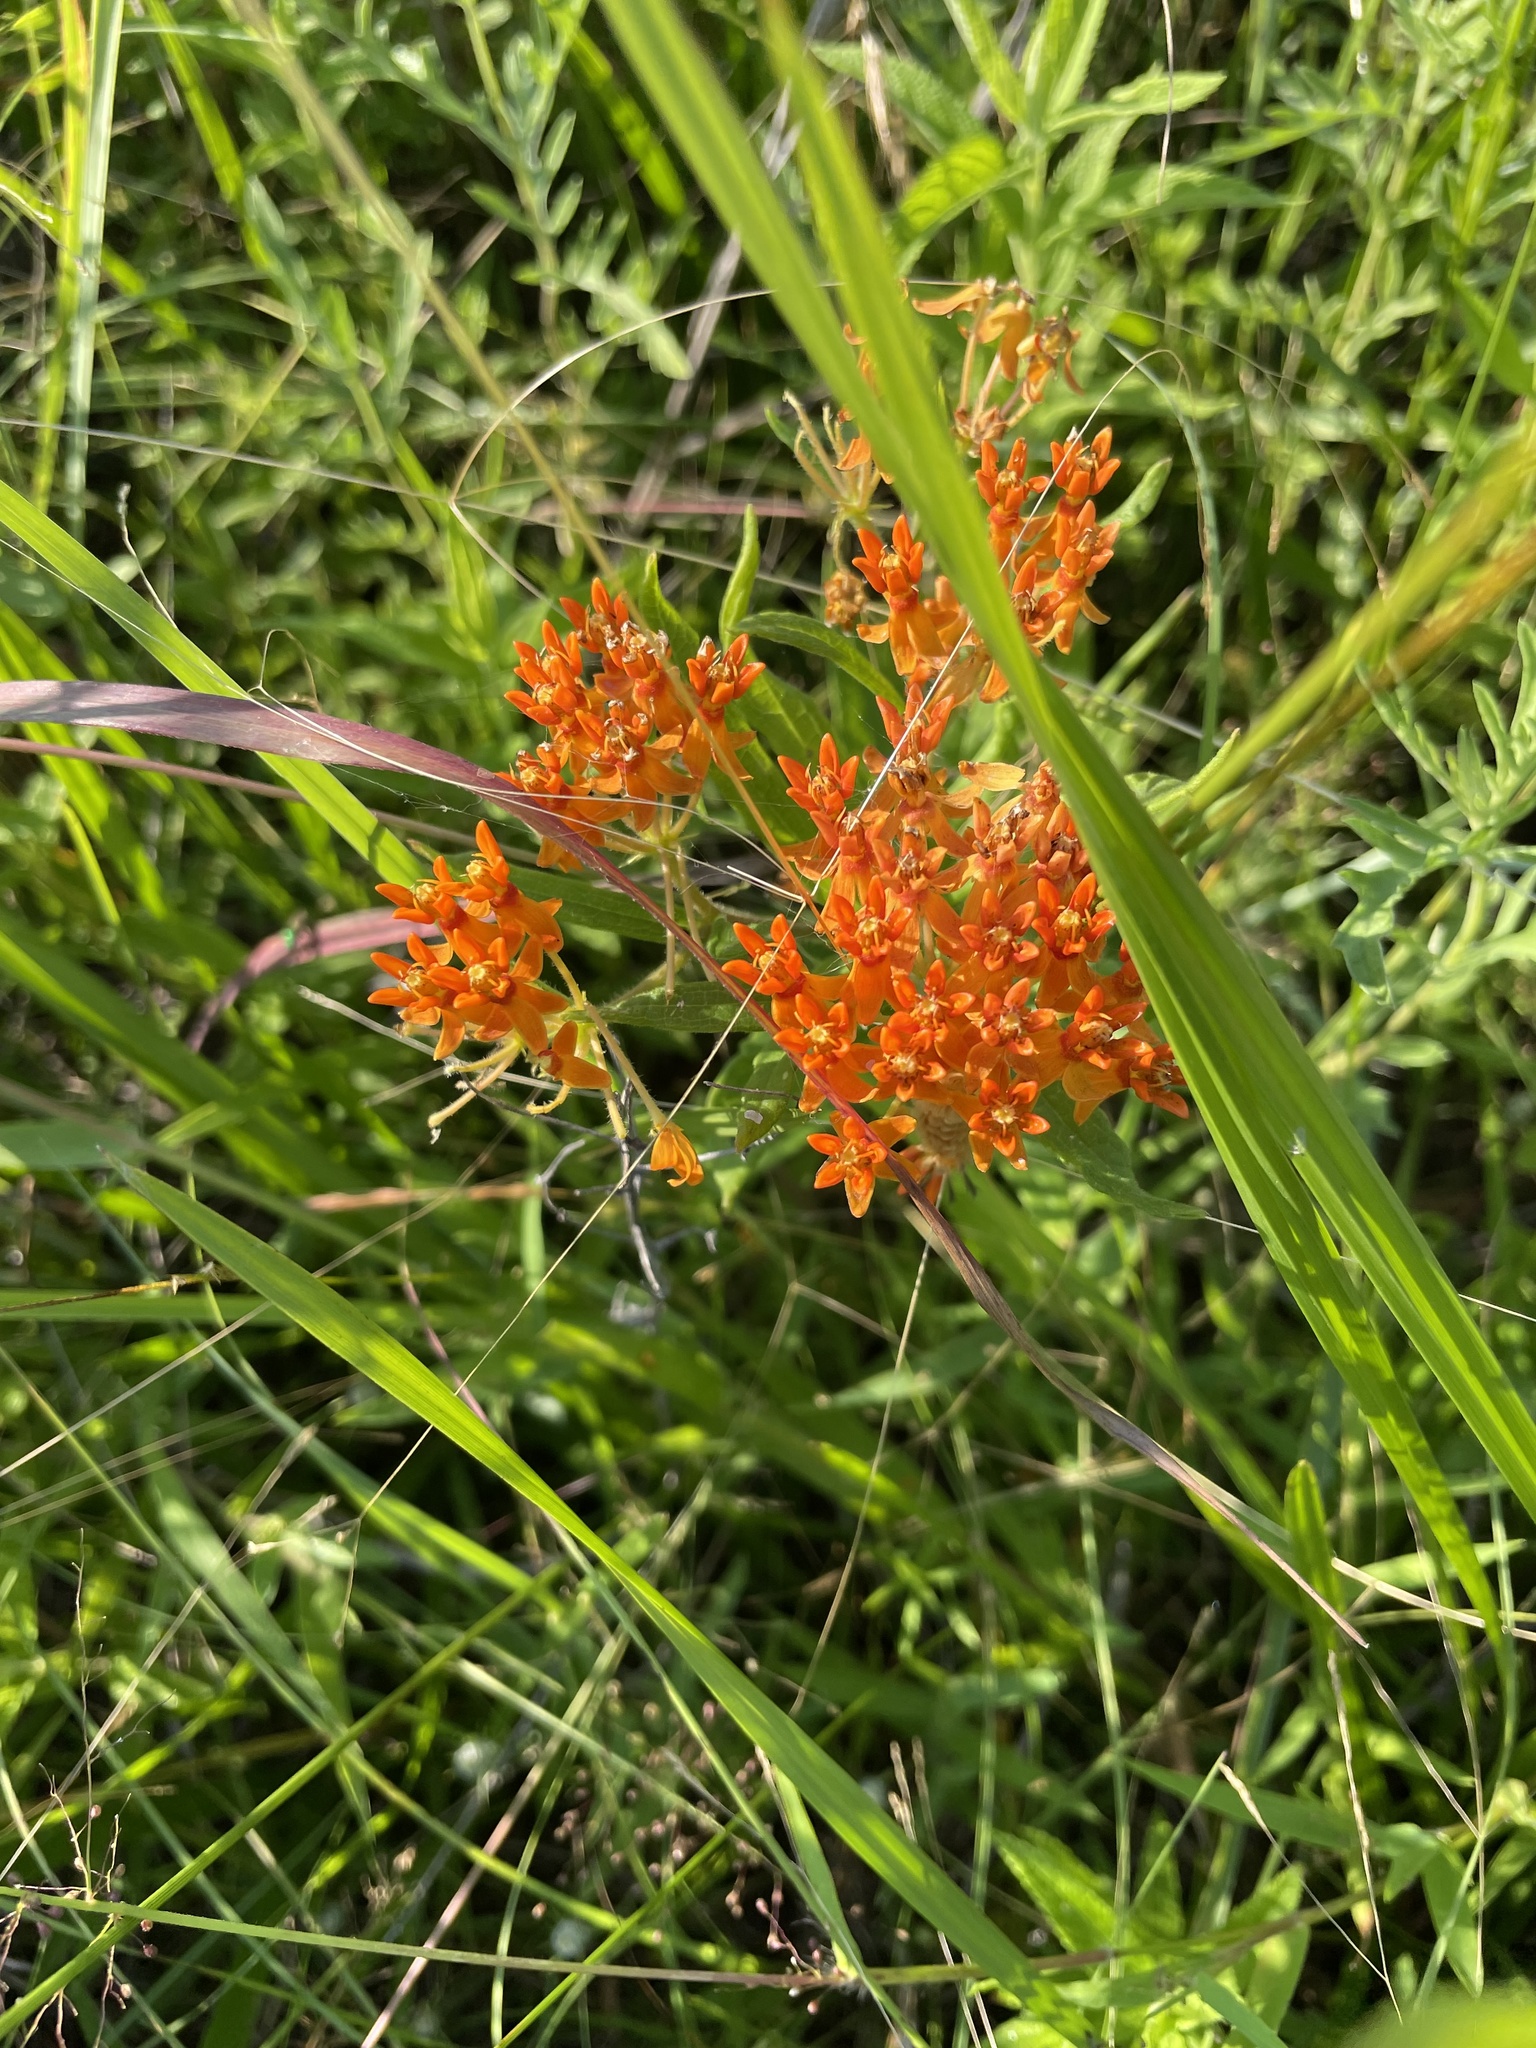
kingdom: Plantae
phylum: Tracheophyta
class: Magnoliopsida
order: Gentianales
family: Apocynaceae
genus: Asclepias
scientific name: Asclepias tuberosa
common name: Butterfly milkweed
